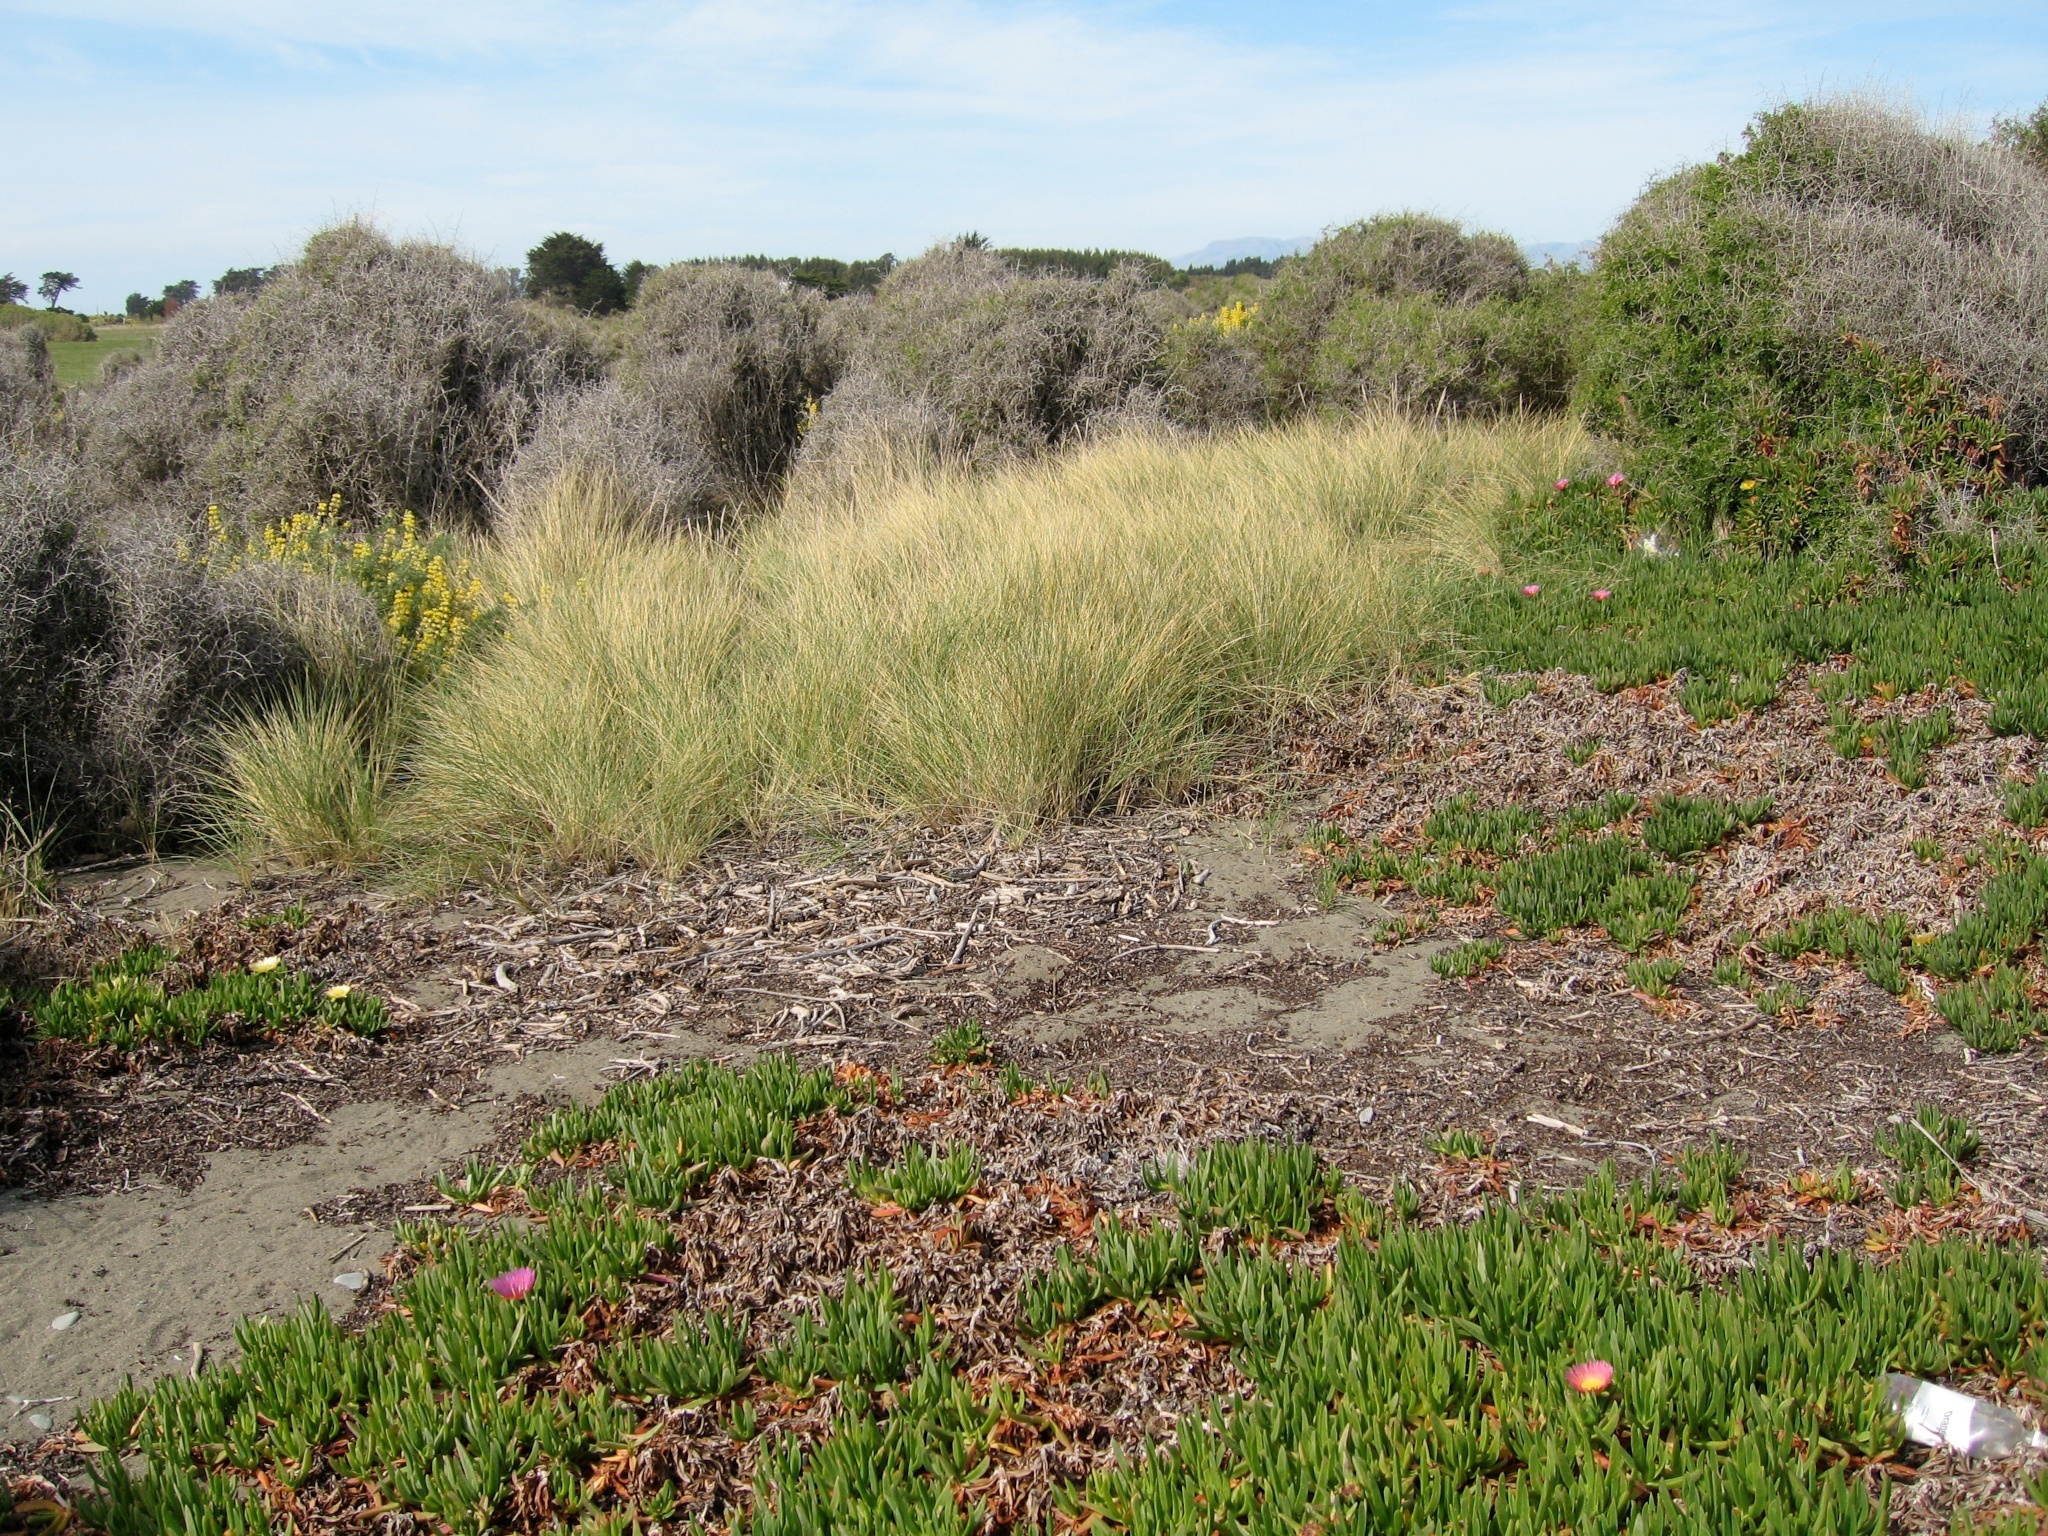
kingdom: Plantae
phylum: Tracheophyta
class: Liliopsida
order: Poales
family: Poaceae
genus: Calamagrostis
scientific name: Calamagrostis arenaria
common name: European beachgrass
